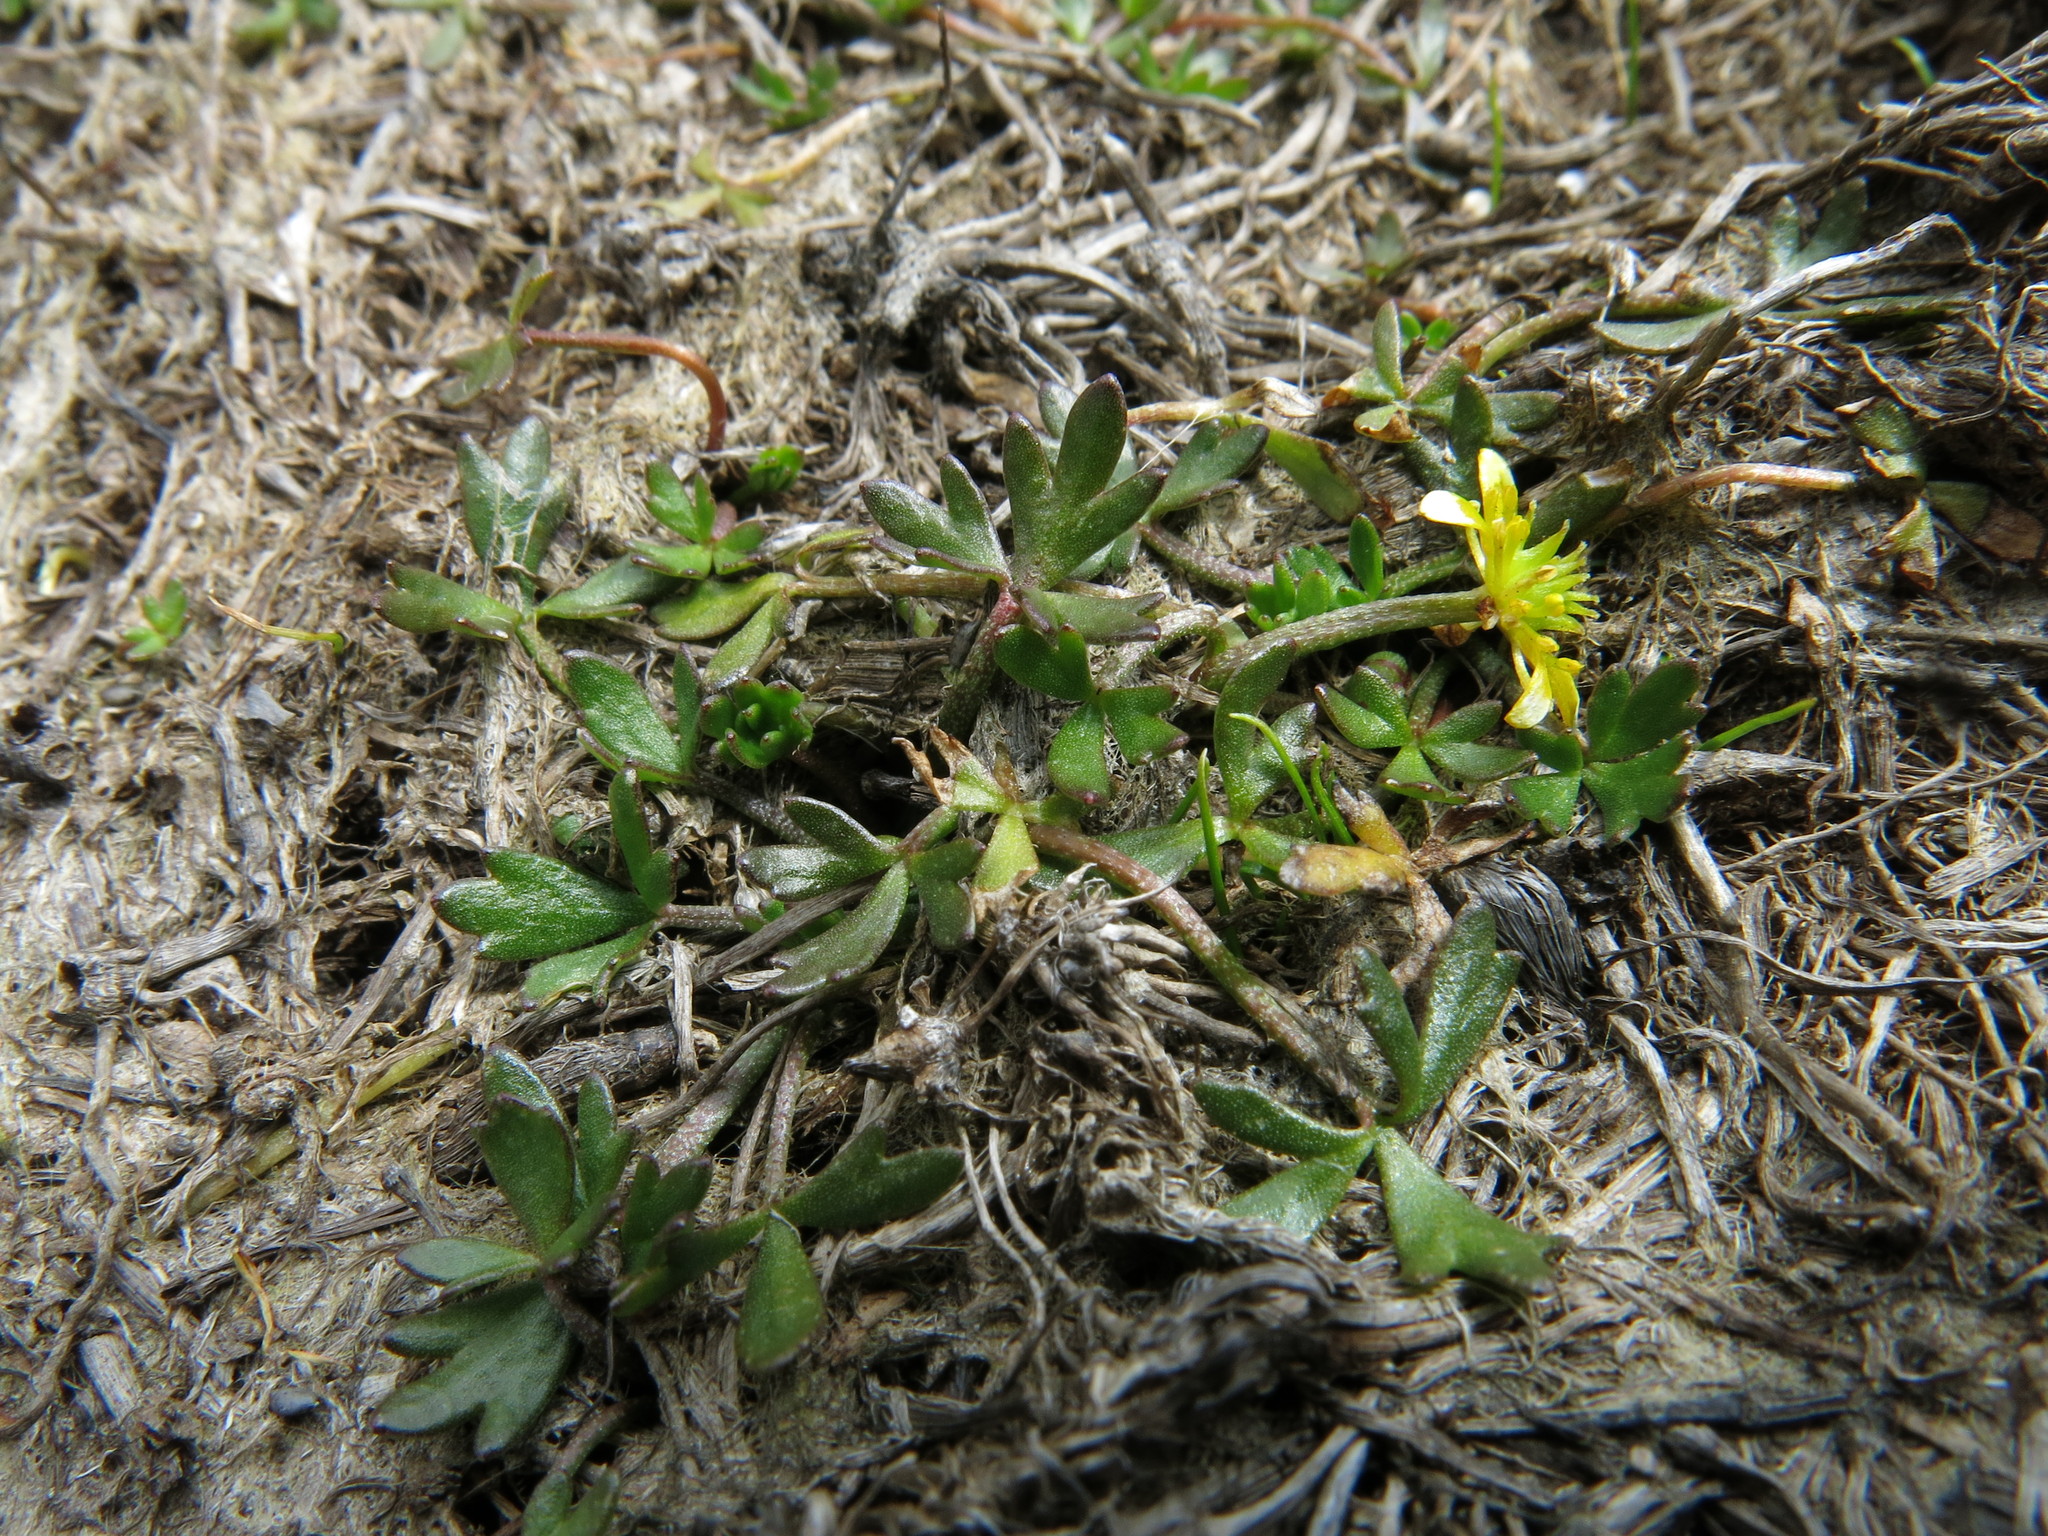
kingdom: Plantae
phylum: Tracheophyta
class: Magnoliopsida
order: Ranunculales
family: Ranunculaceae
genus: Ranunculus
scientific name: Ranunculus glabrifolius
